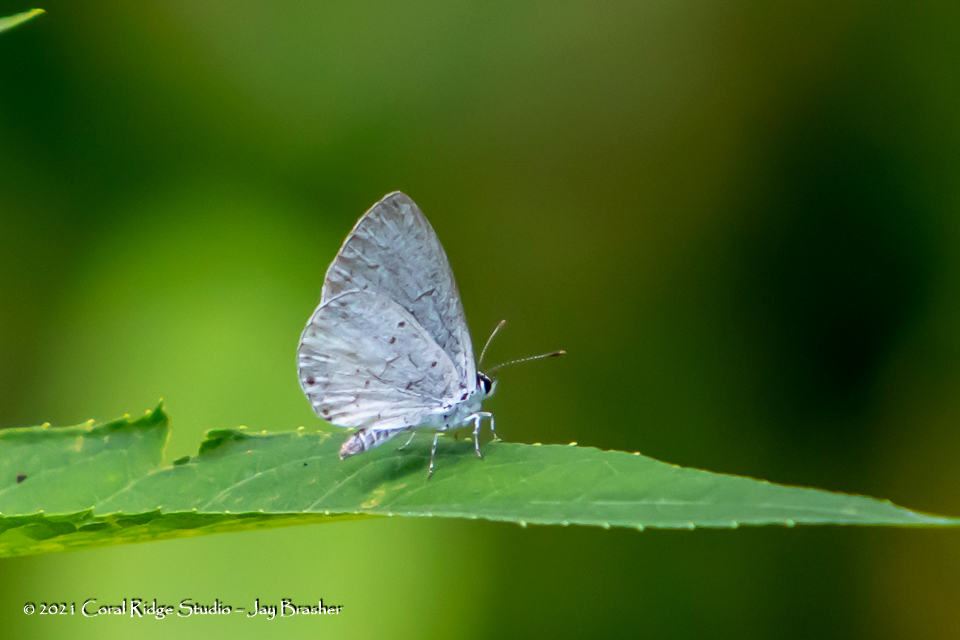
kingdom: Animalia
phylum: Arthropoda
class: Insecta
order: Lepidoptera
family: Lycaenidae
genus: Cyaniris
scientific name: Cyaniris neglecta
